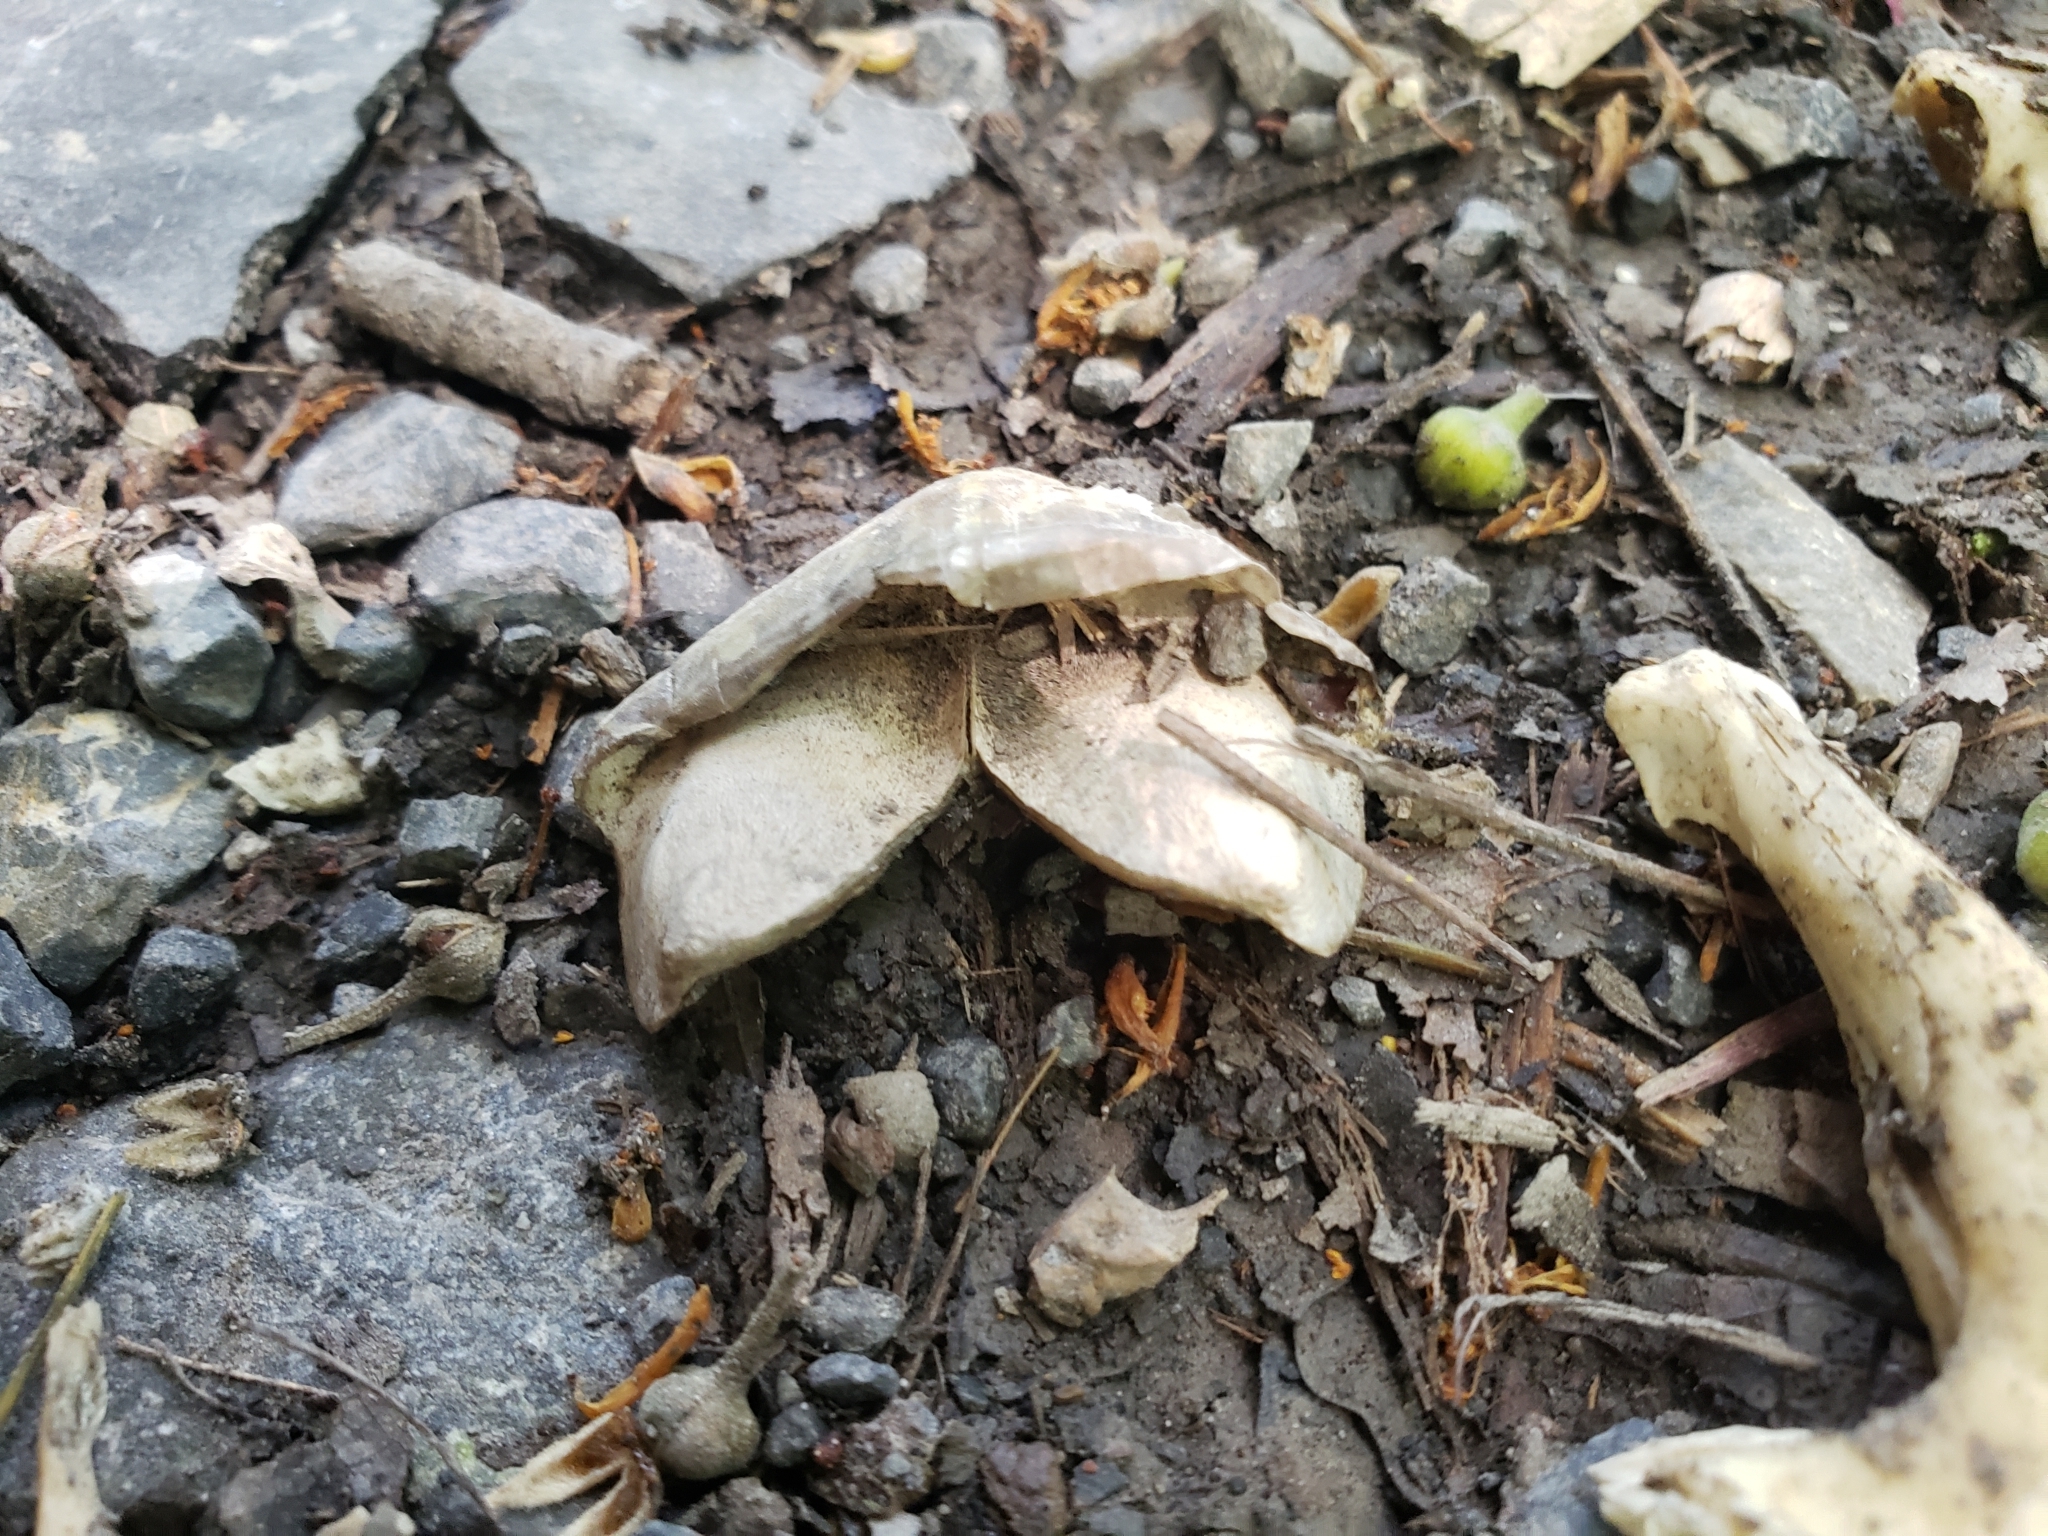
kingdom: Animalia
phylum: Chordata
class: Testudines
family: Emydidae
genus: Graptemys
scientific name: Graptemys geographica
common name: Common map turtle
